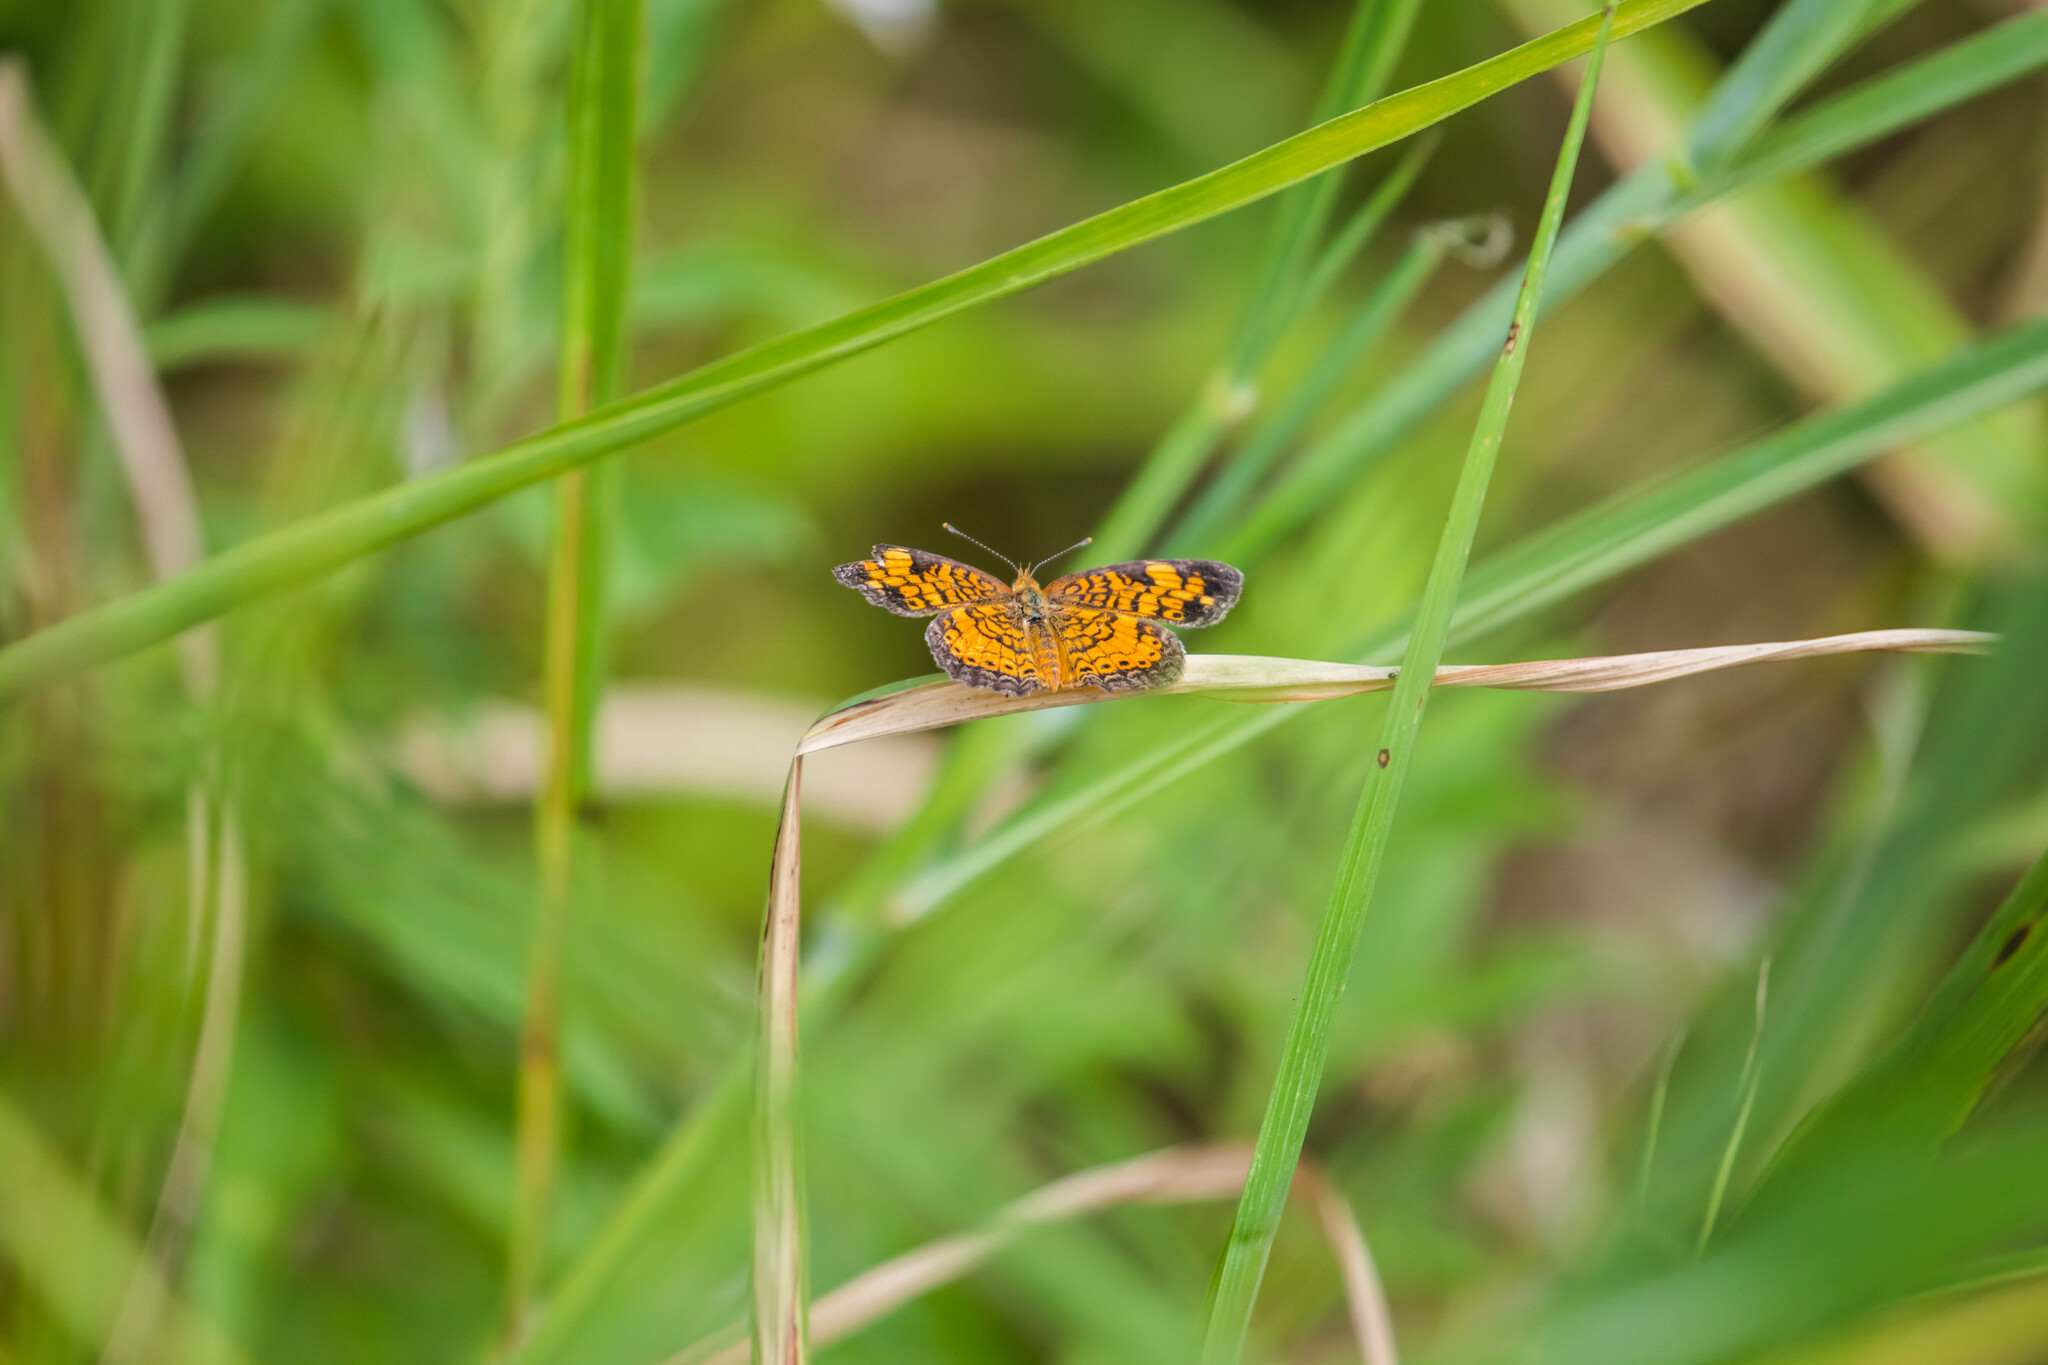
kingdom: Animalia
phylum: Arthropoda
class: Insecta
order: Lepidoptera
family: Nymphalidae
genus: Phyciodes
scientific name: Phyciodes tharos
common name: Pearl crescent
